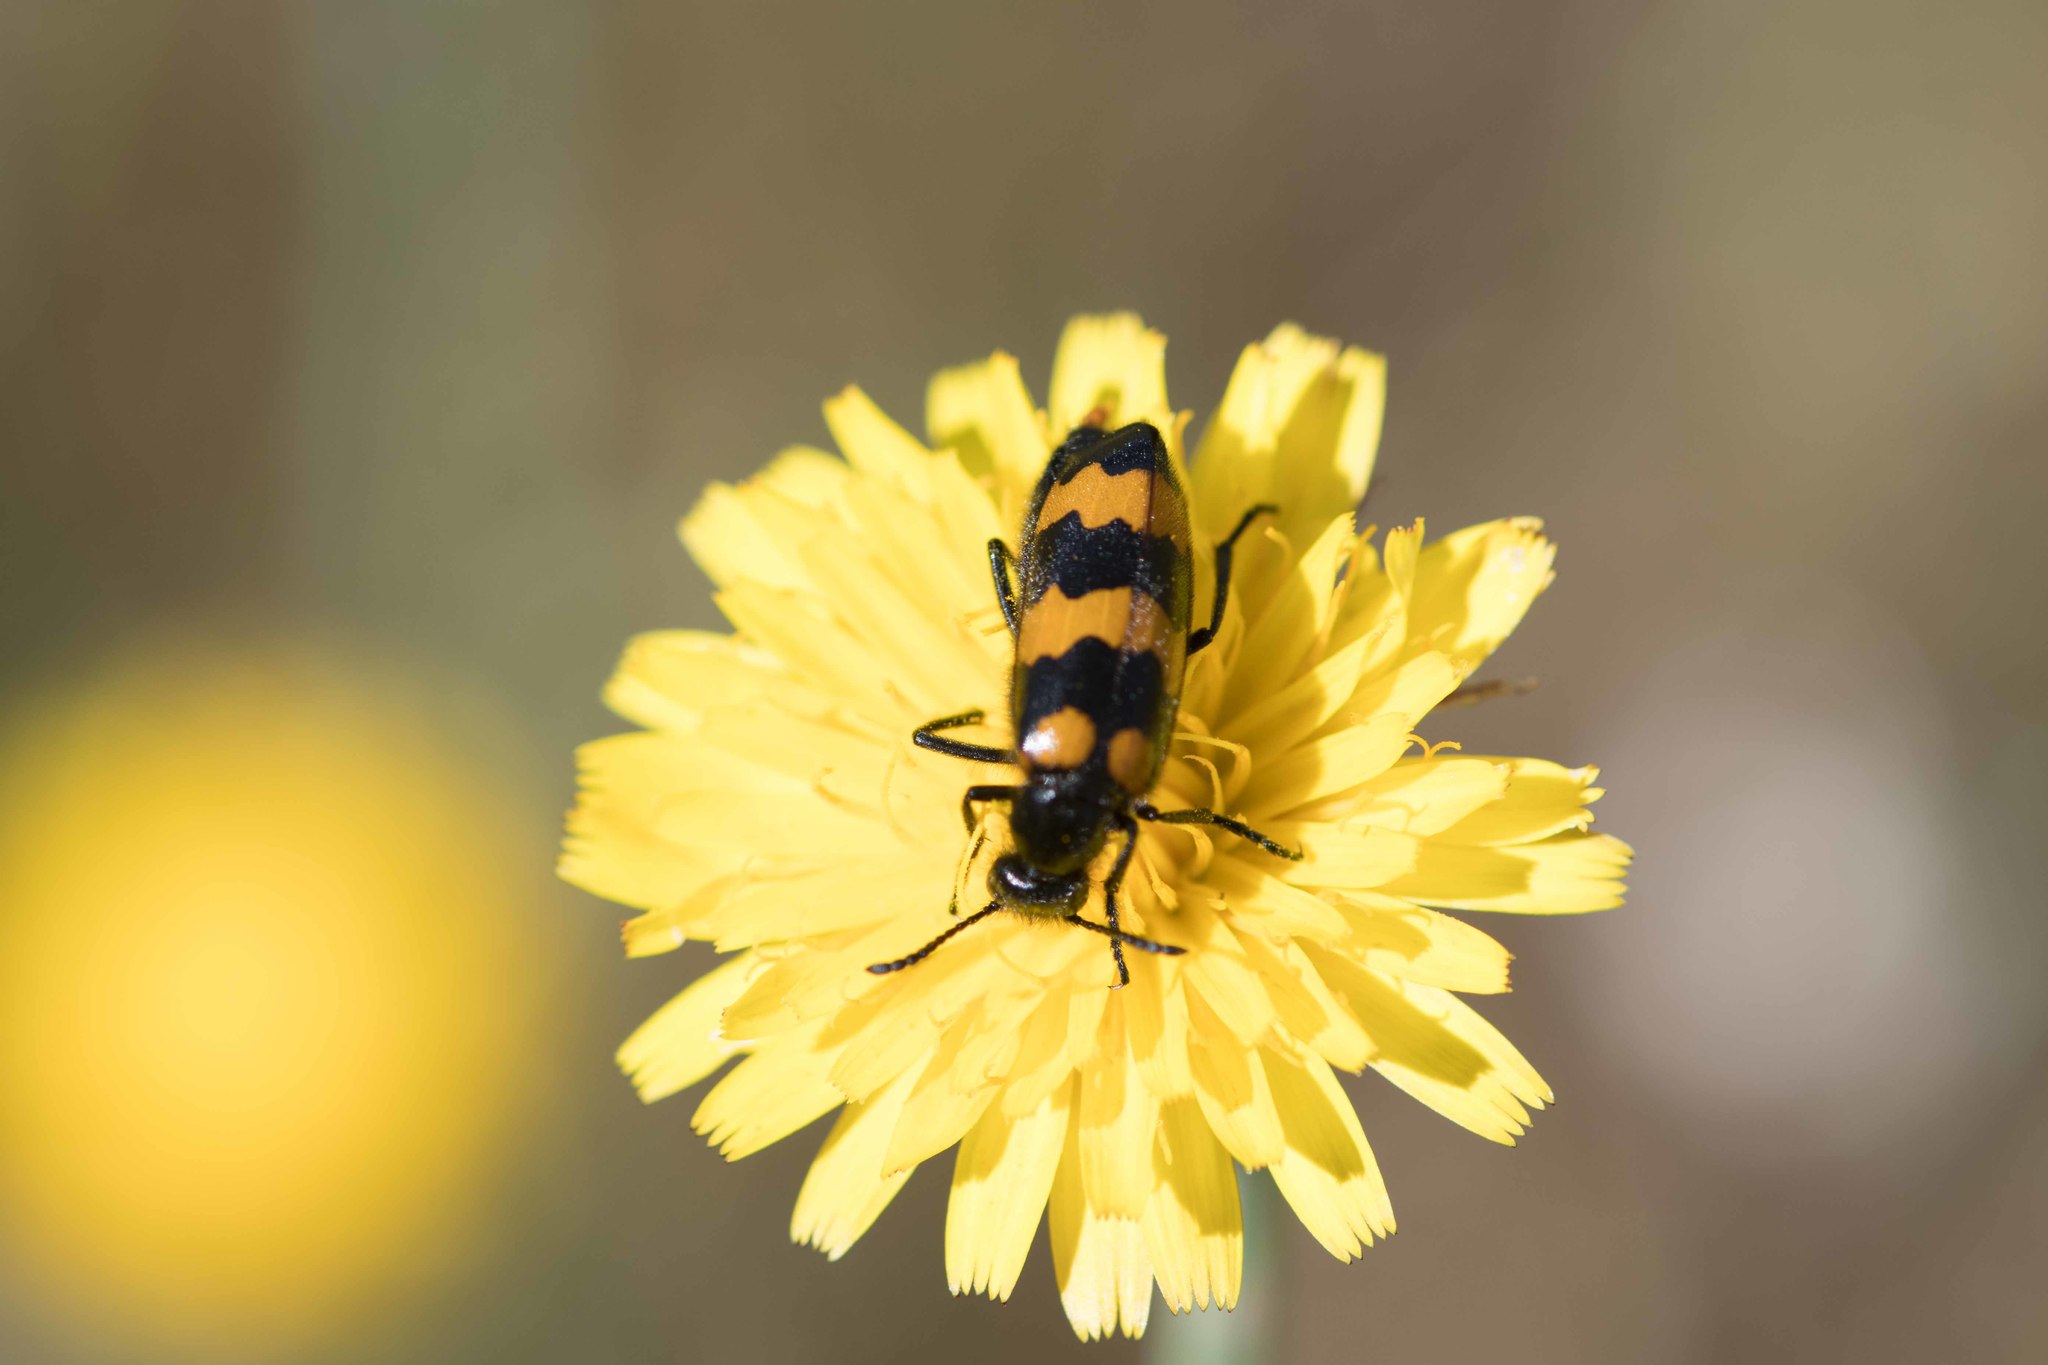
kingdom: Animalia
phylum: Arthropoda
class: Insecta
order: Coleoptera
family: Meloidae
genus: Mylabris
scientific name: Mylabris variabilis
